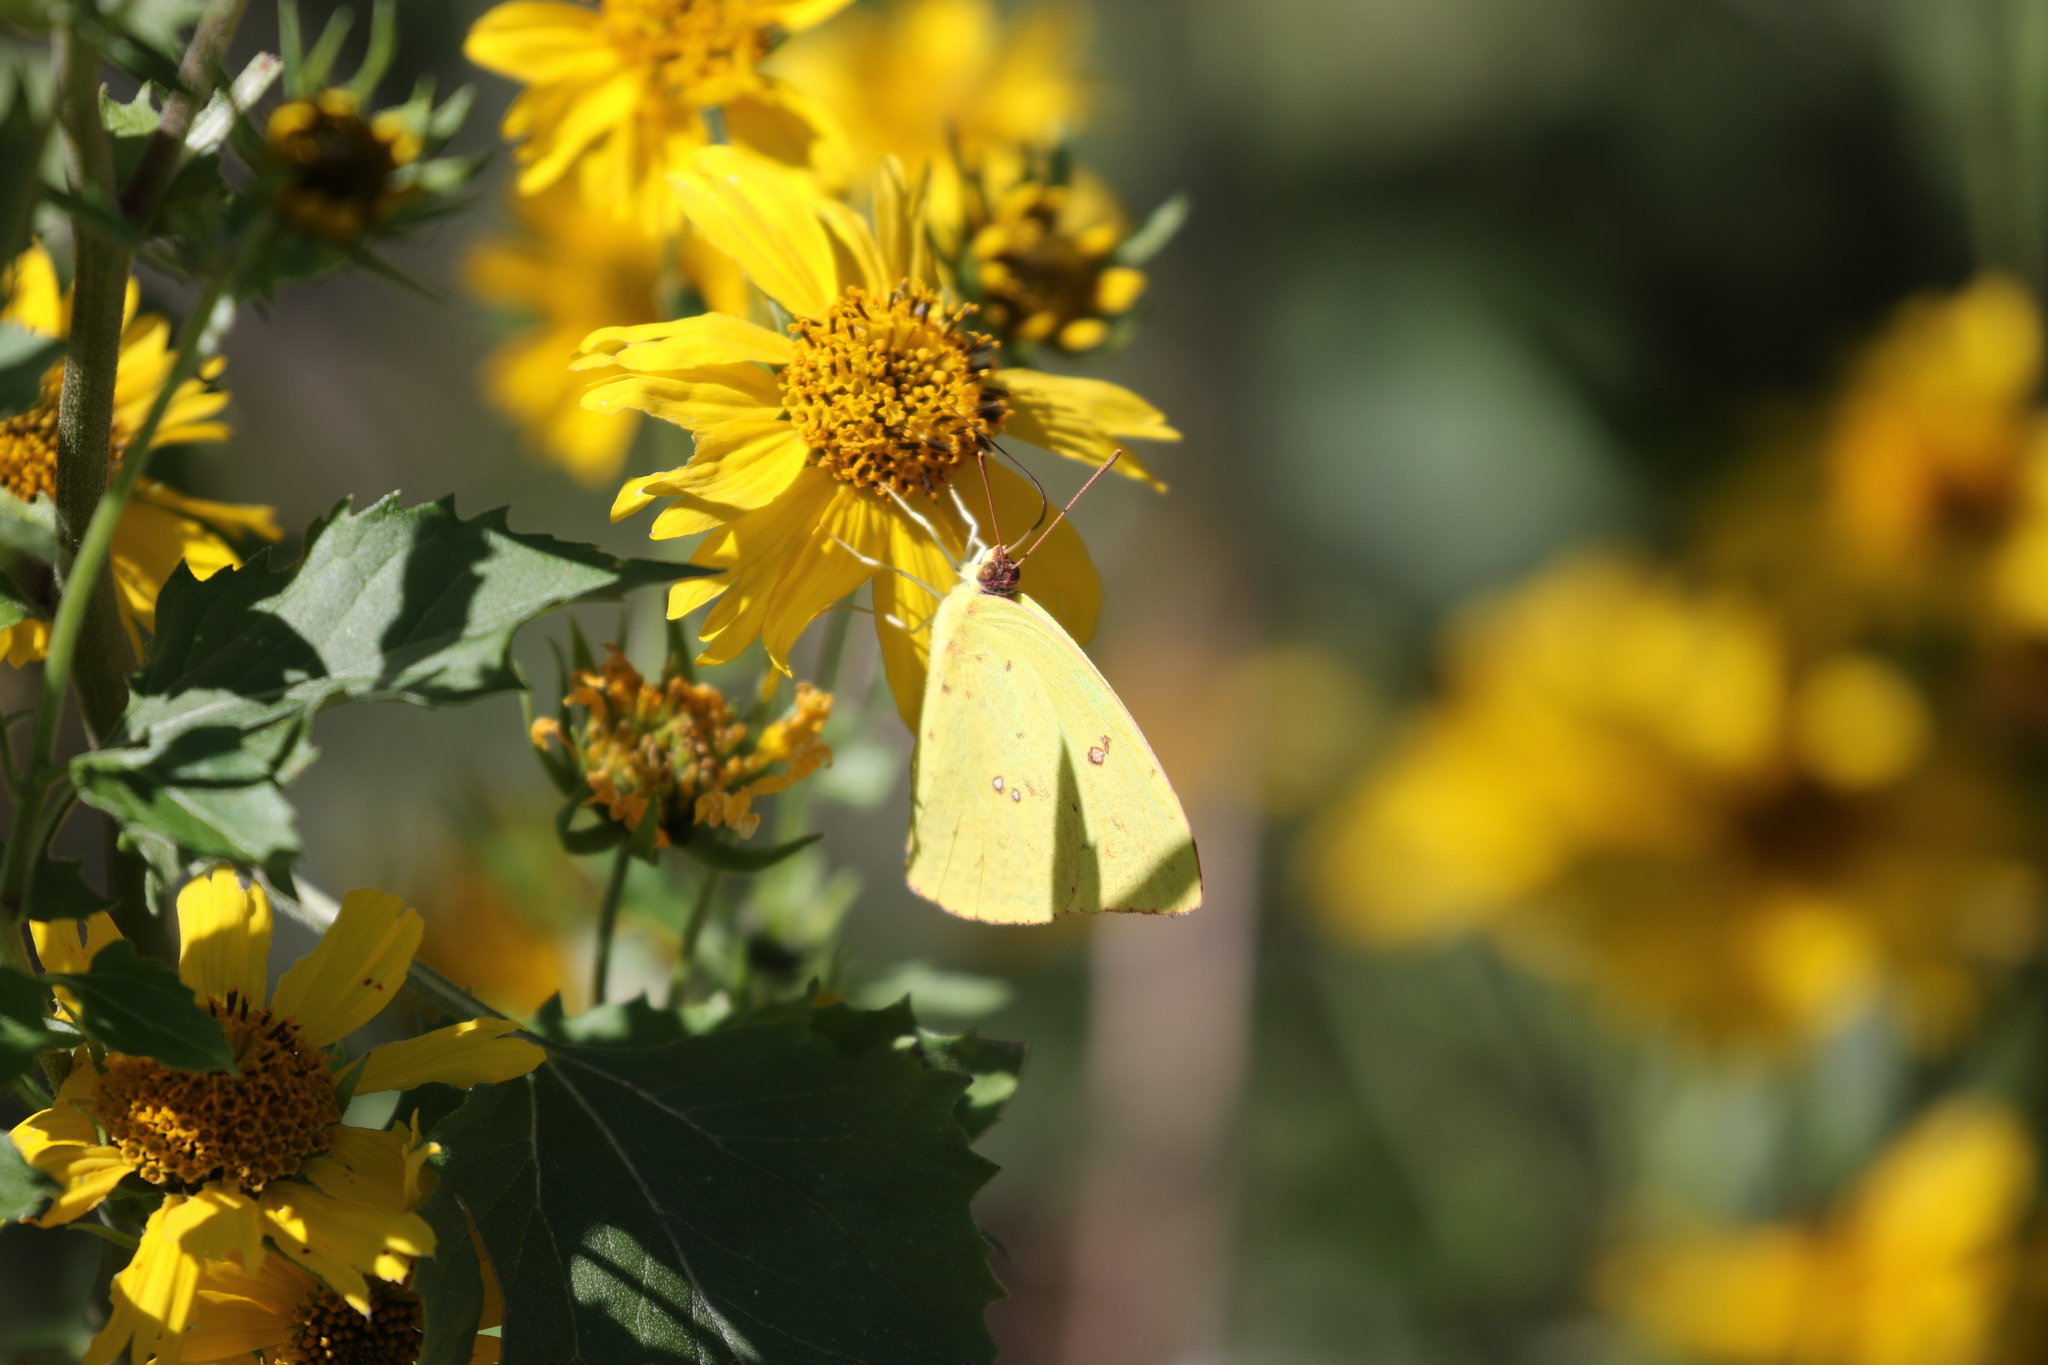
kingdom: Animalia
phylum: Arthropoda
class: Insecta
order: Lepidoptera
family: Pieridae
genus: Phoebis
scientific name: Phoebis sennae
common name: Cloudless sulphur
